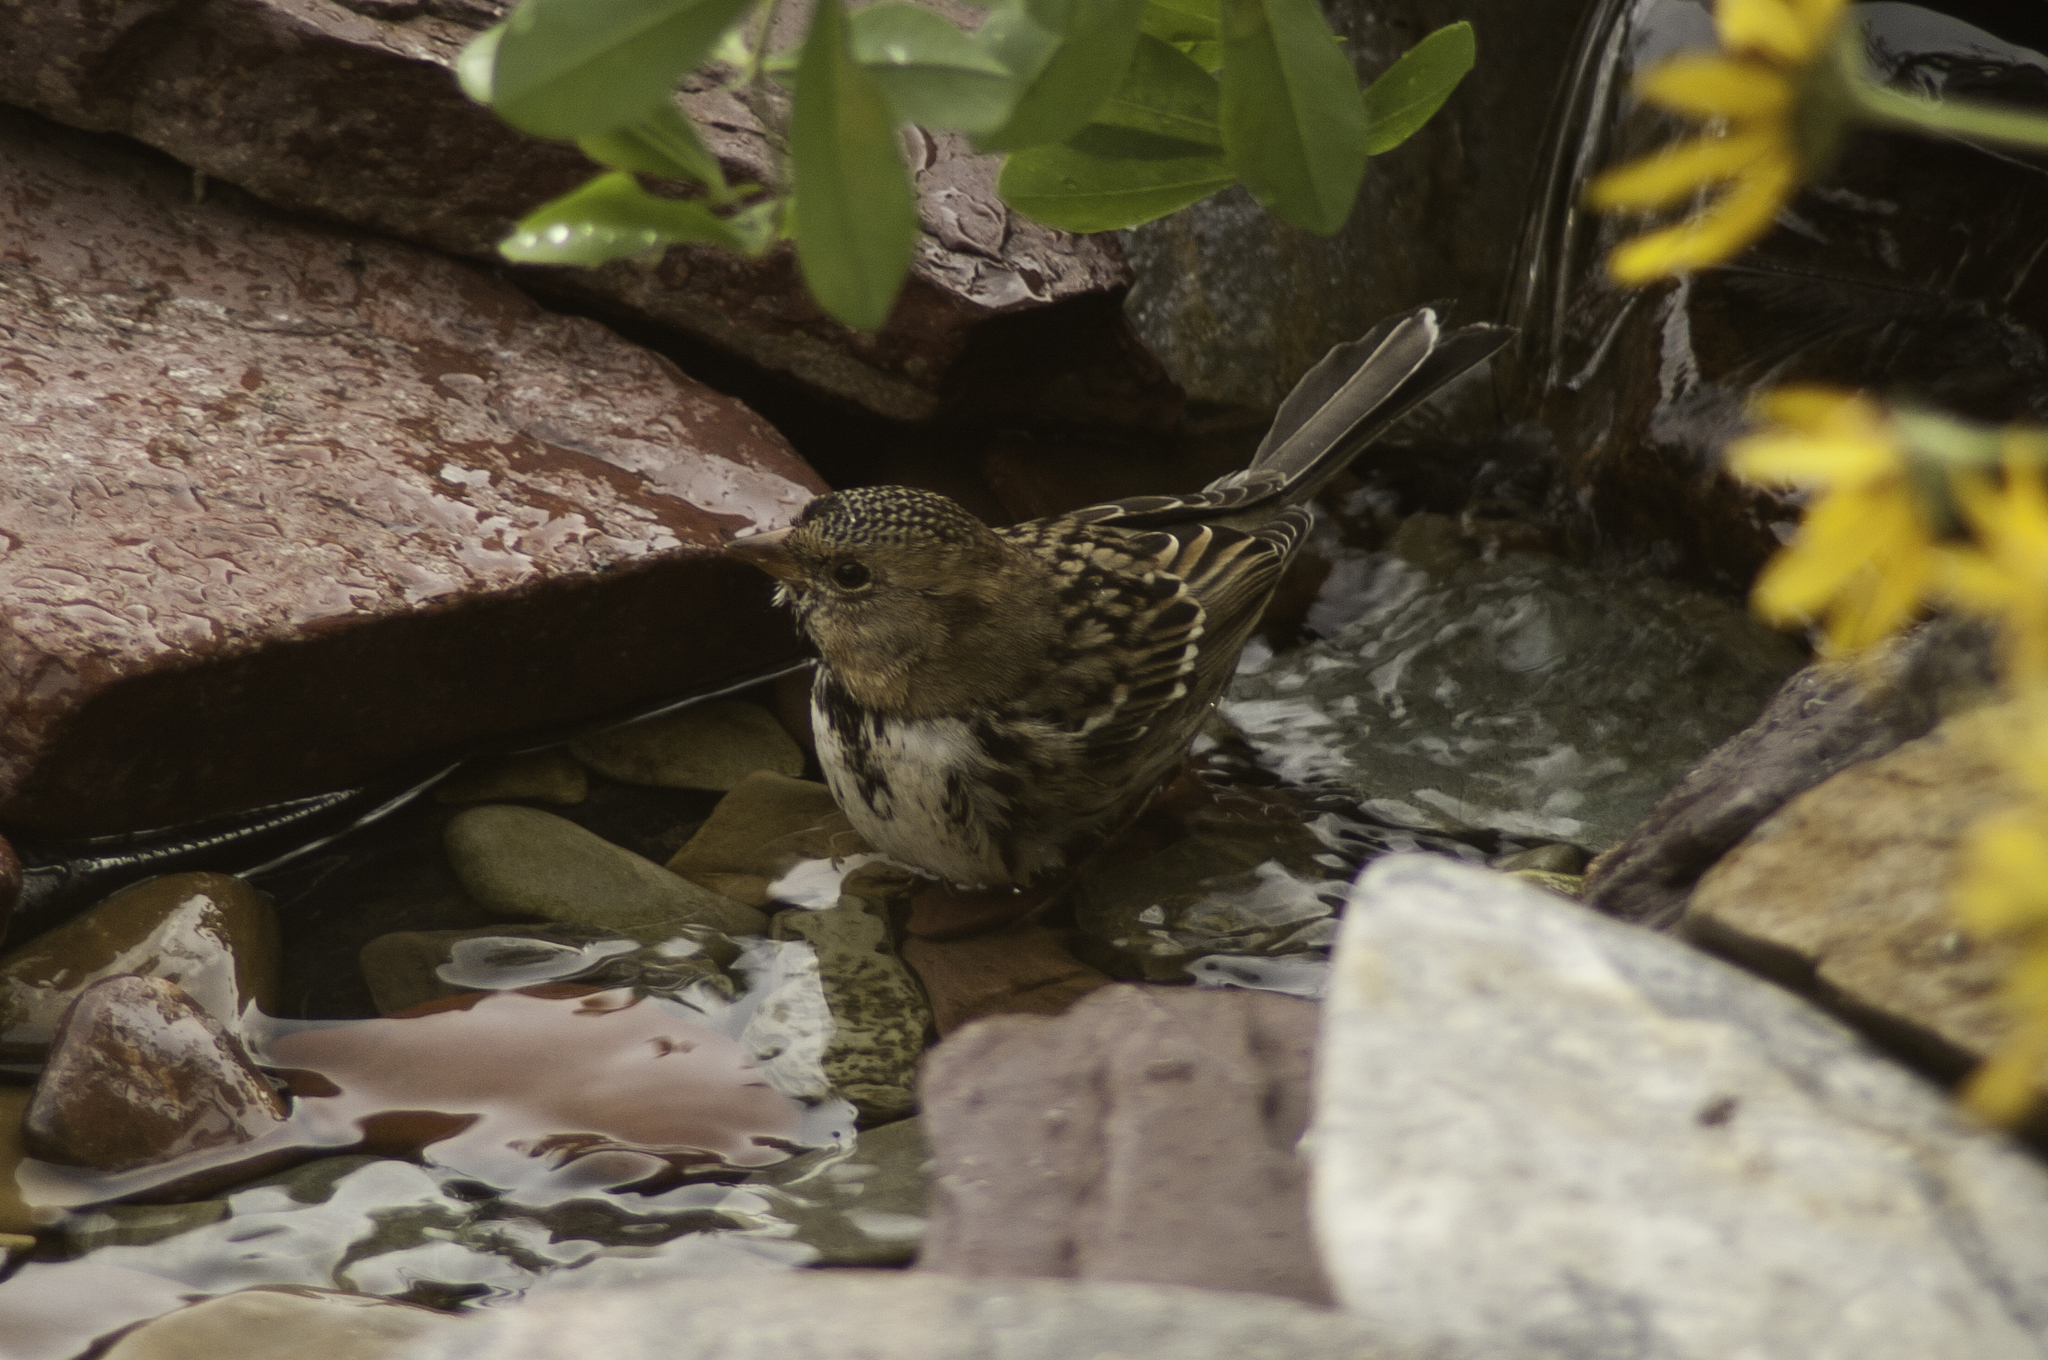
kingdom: Animalia
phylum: Chordata
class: Aves
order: Passeriformes
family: Passerellidae
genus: Zonotrichia
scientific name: Zonotrichia querula
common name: Harris's sparrow
